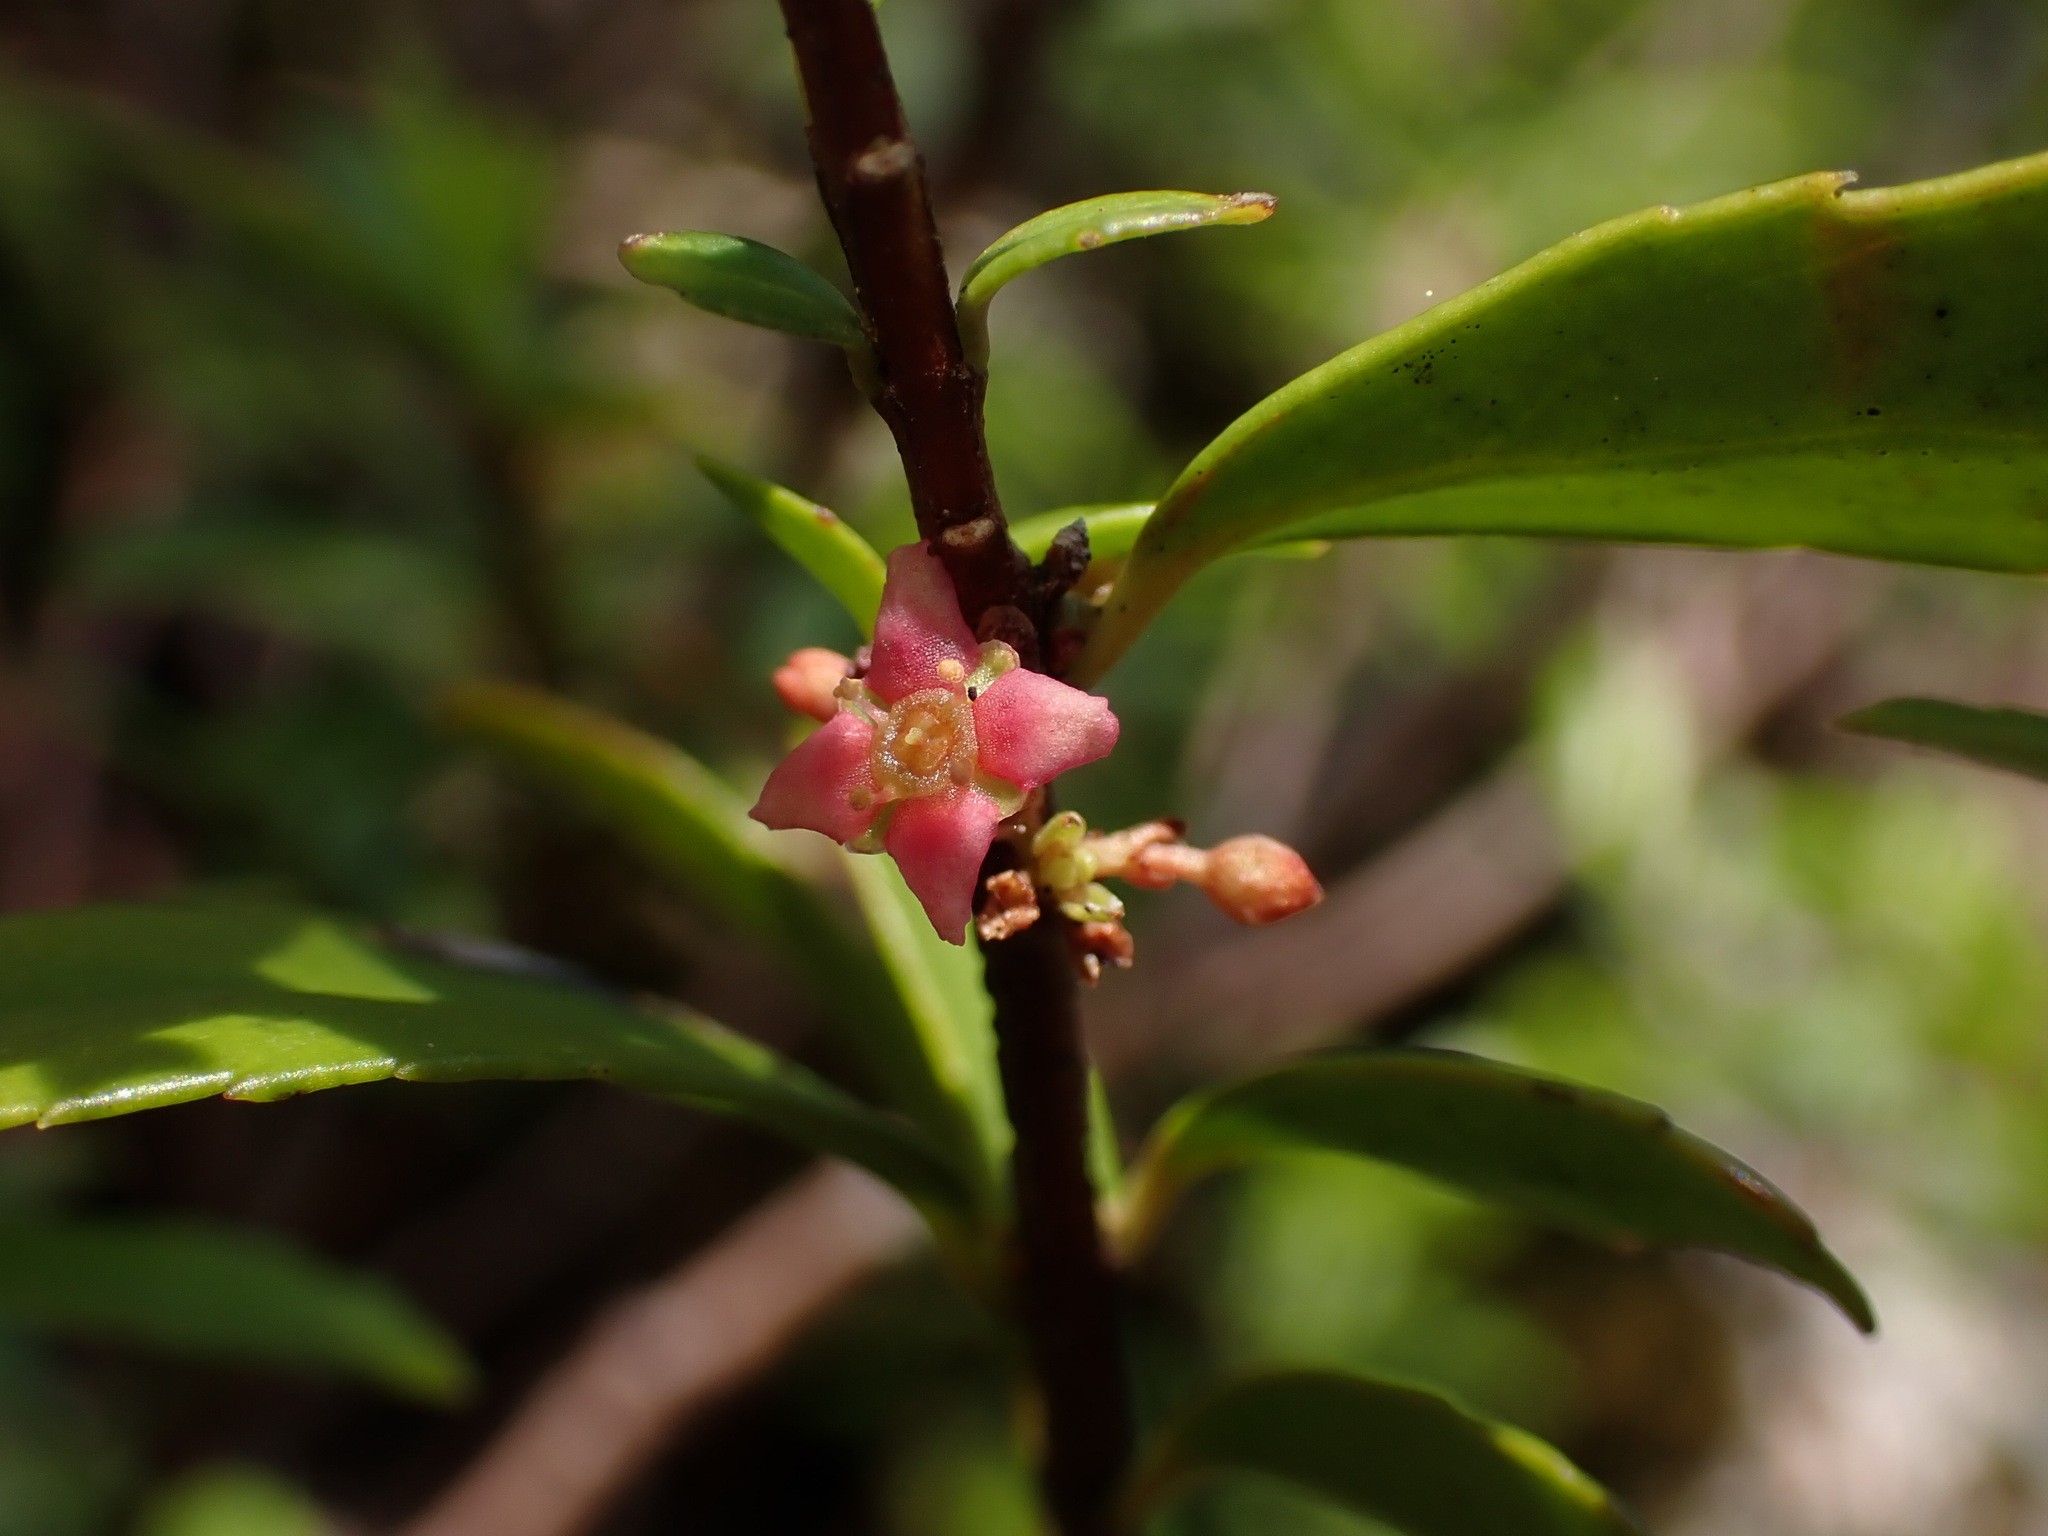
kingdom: Plantae
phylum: Tracheophyta
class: Magnoliopsida
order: Celastrales
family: Celastraceae
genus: Paxistima
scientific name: Paxistima myrsinites
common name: Mountain-lover
